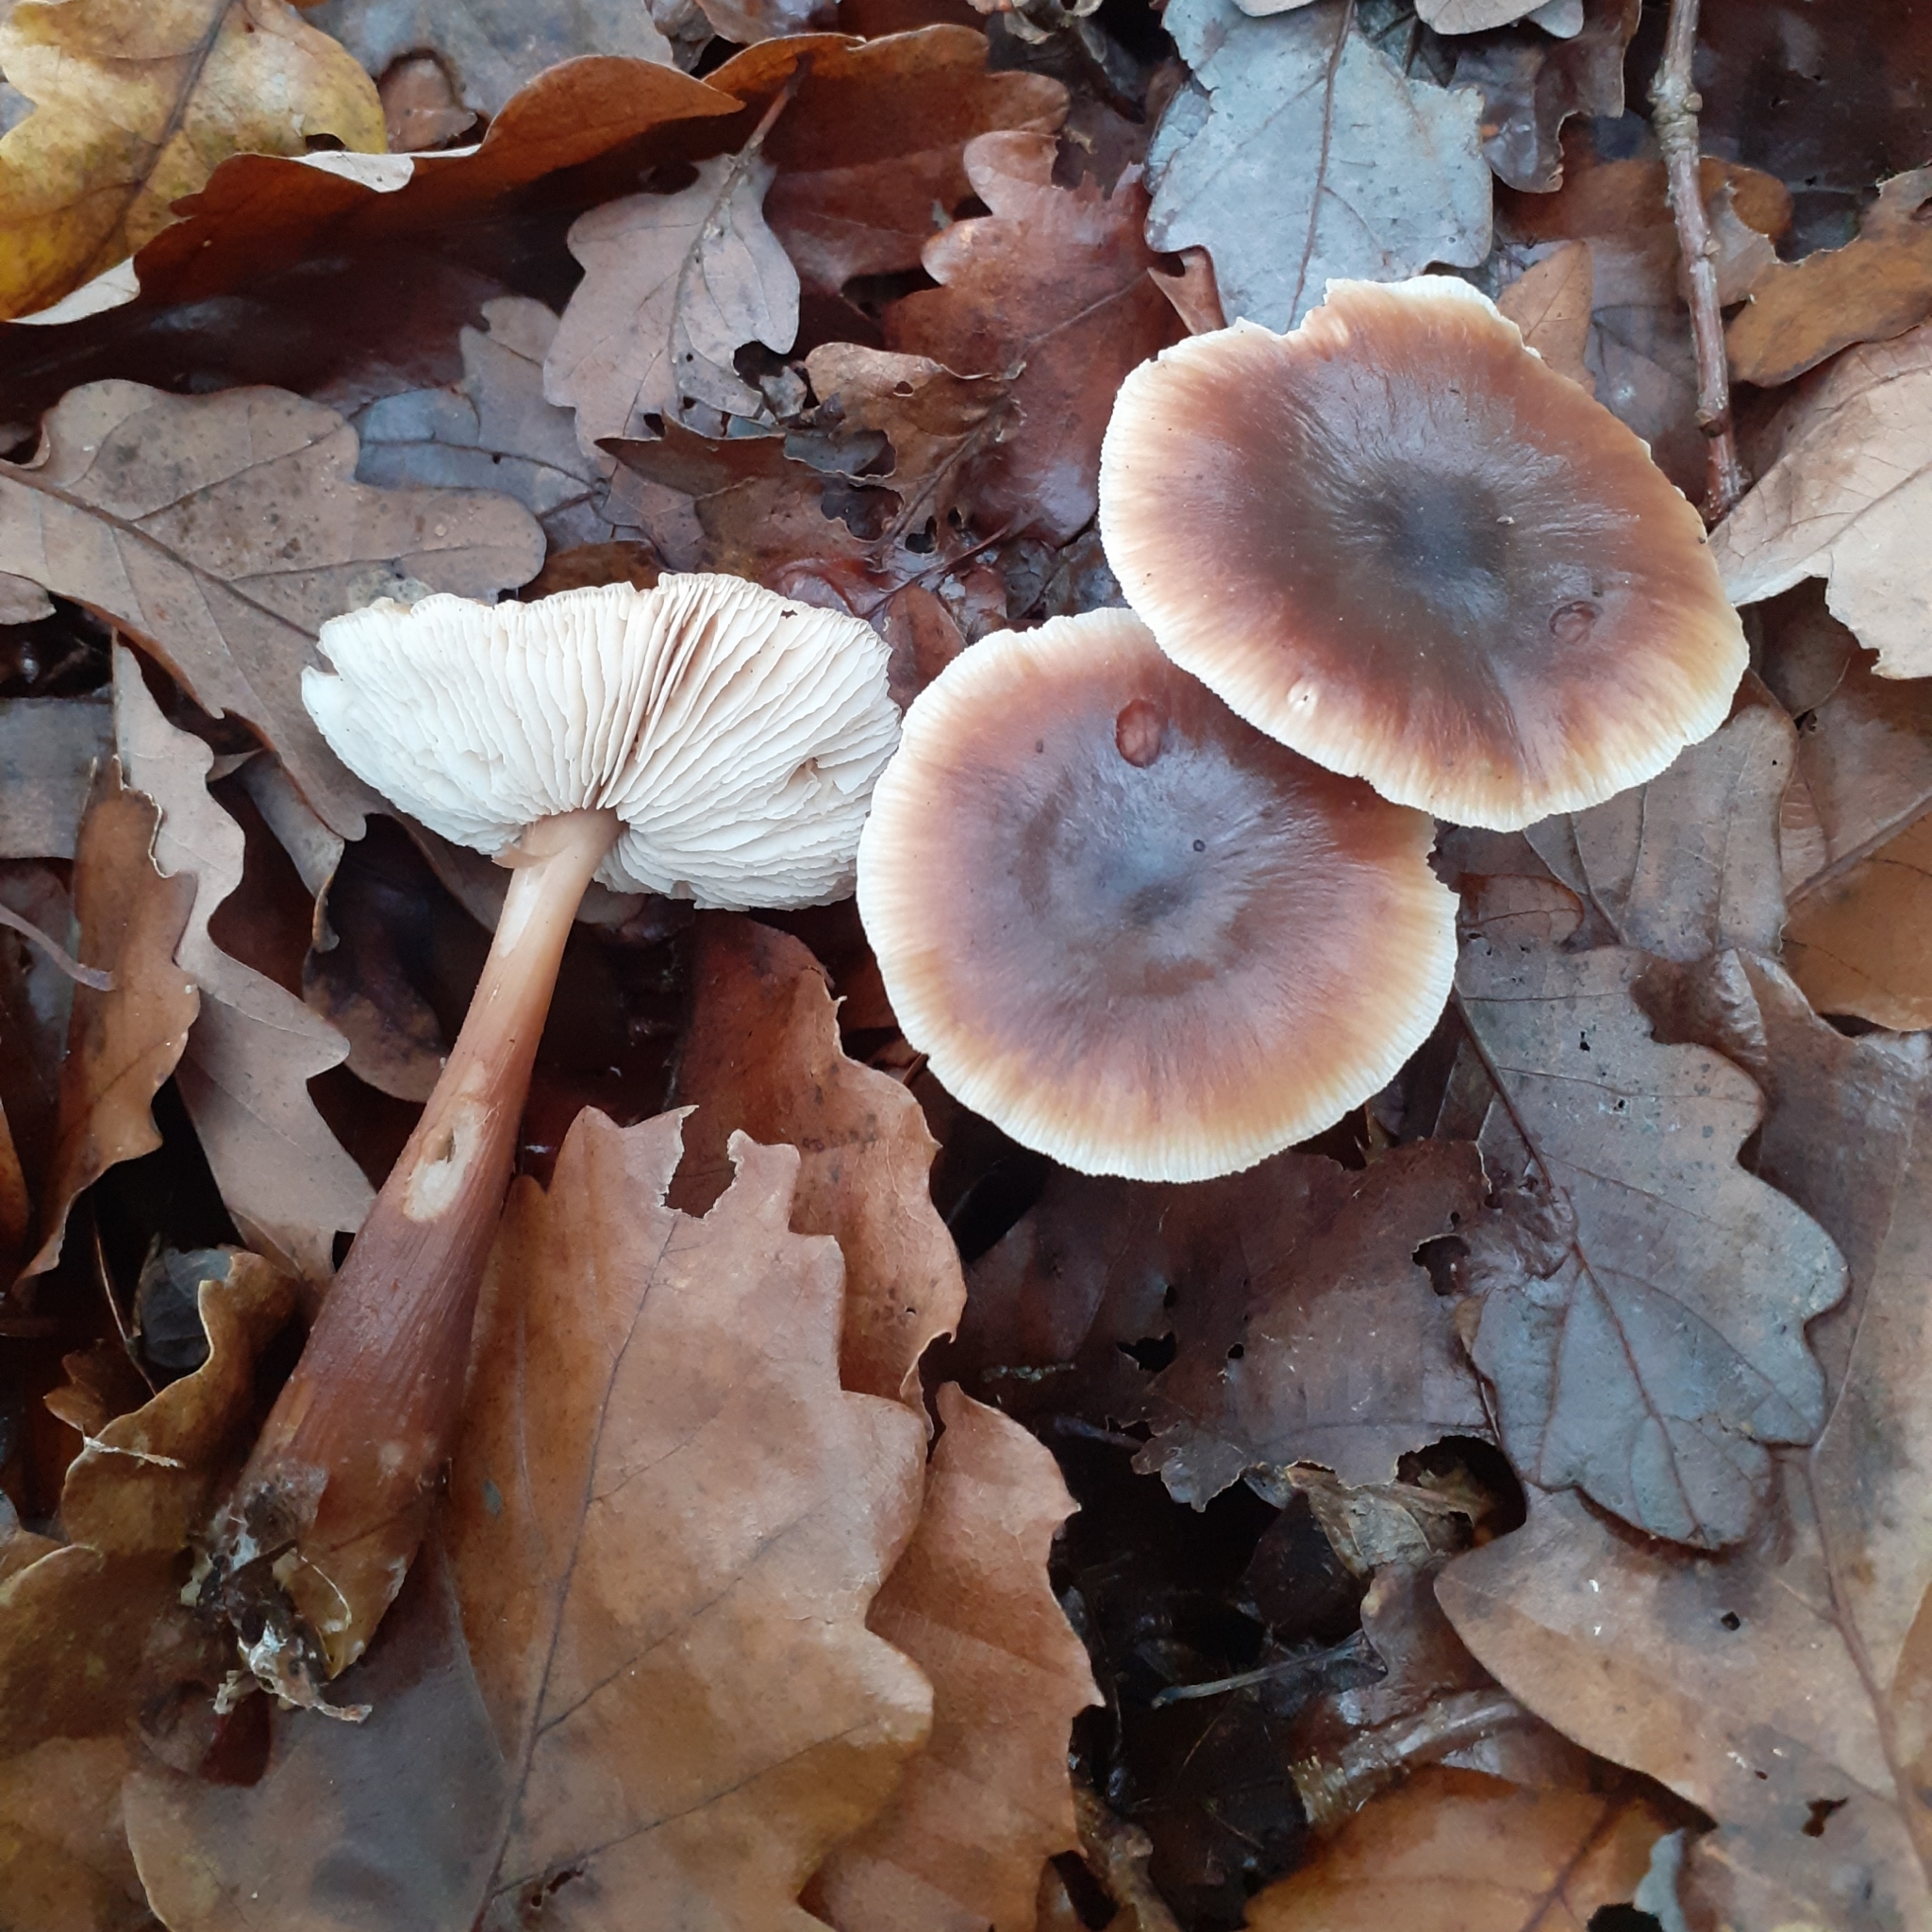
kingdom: Fungi
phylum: Basidiomycota
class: Agaricomycetes
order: Agaricales
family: Omphalotaceae
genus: Rhodocollybia
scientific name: Rhodocollybia butyracea
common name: Butter cap
